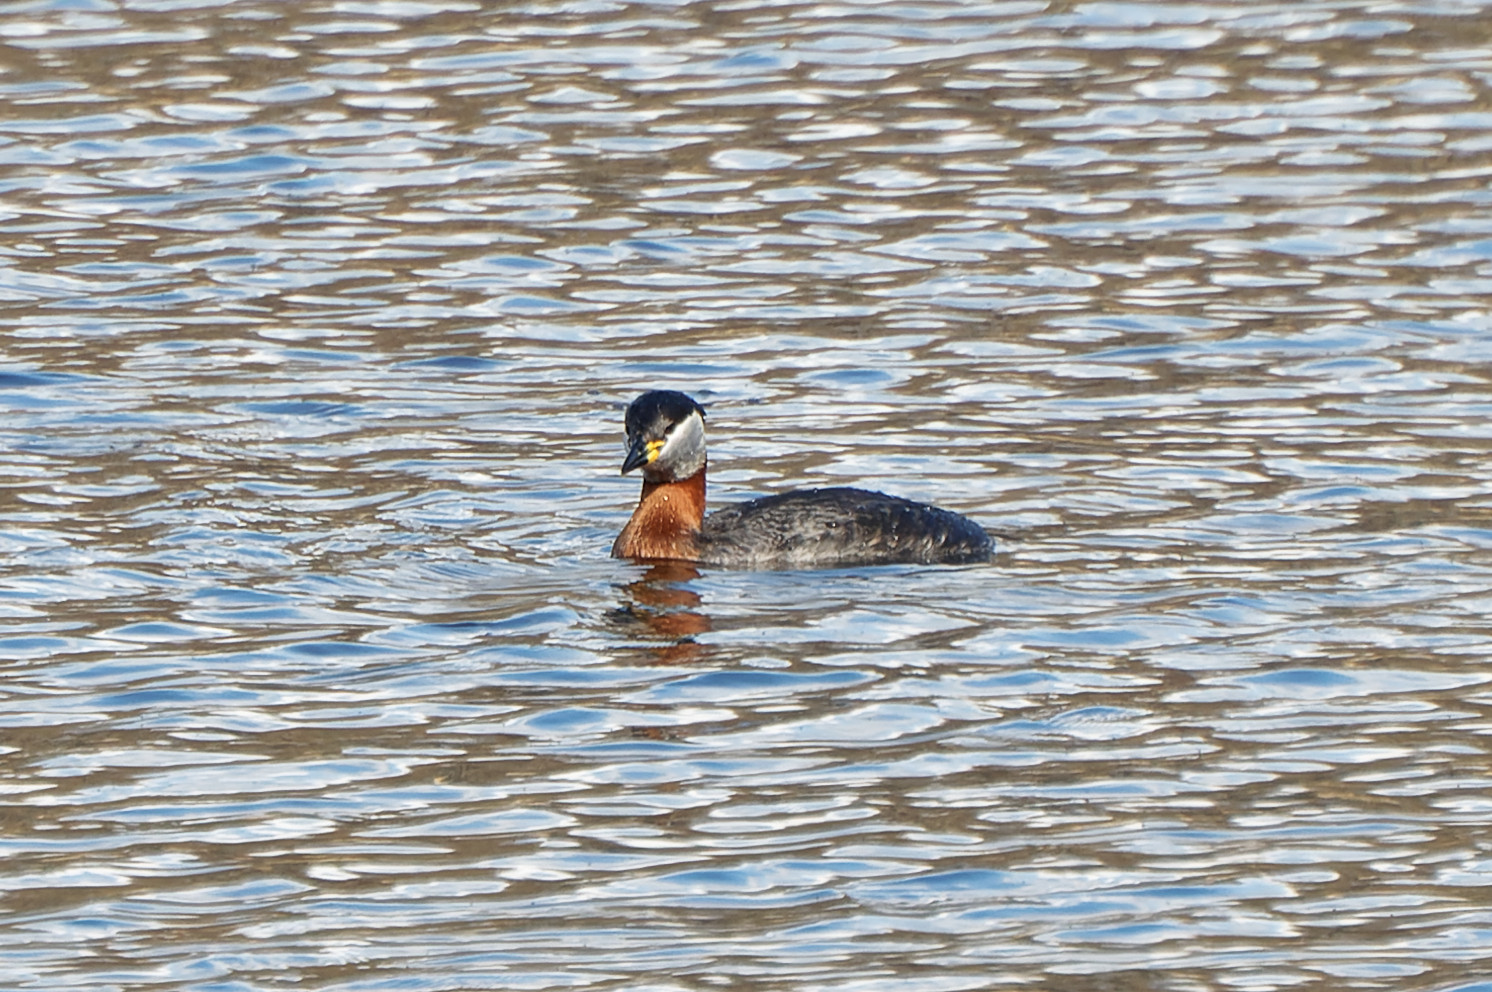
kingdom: Animalia
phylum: Chordata
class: Aves
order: Podicipediformes
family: Podicipedidae
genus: Podiceps
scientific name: Podiceps grisegena
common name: Red-necked grebe
